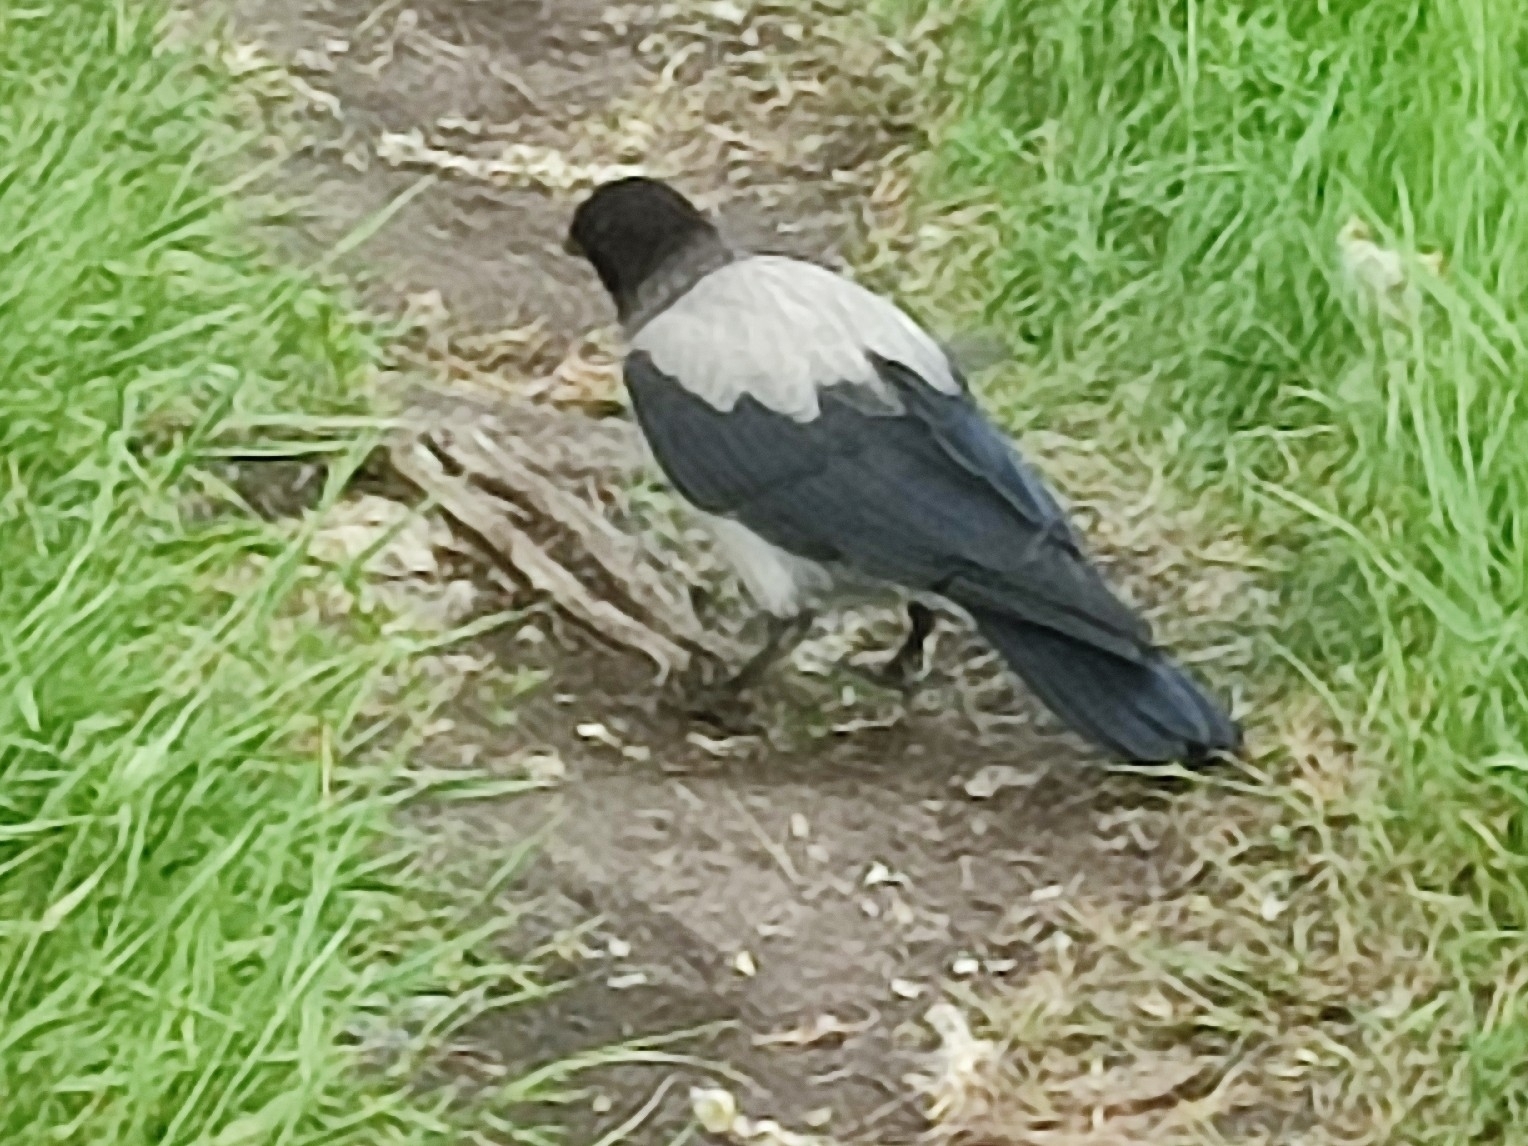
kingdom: Animalia
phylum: Chordata
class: Aves
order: Passeriformes
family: Corvidae
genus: Corvus
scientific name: Corvus cornix
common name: Hooded crow
